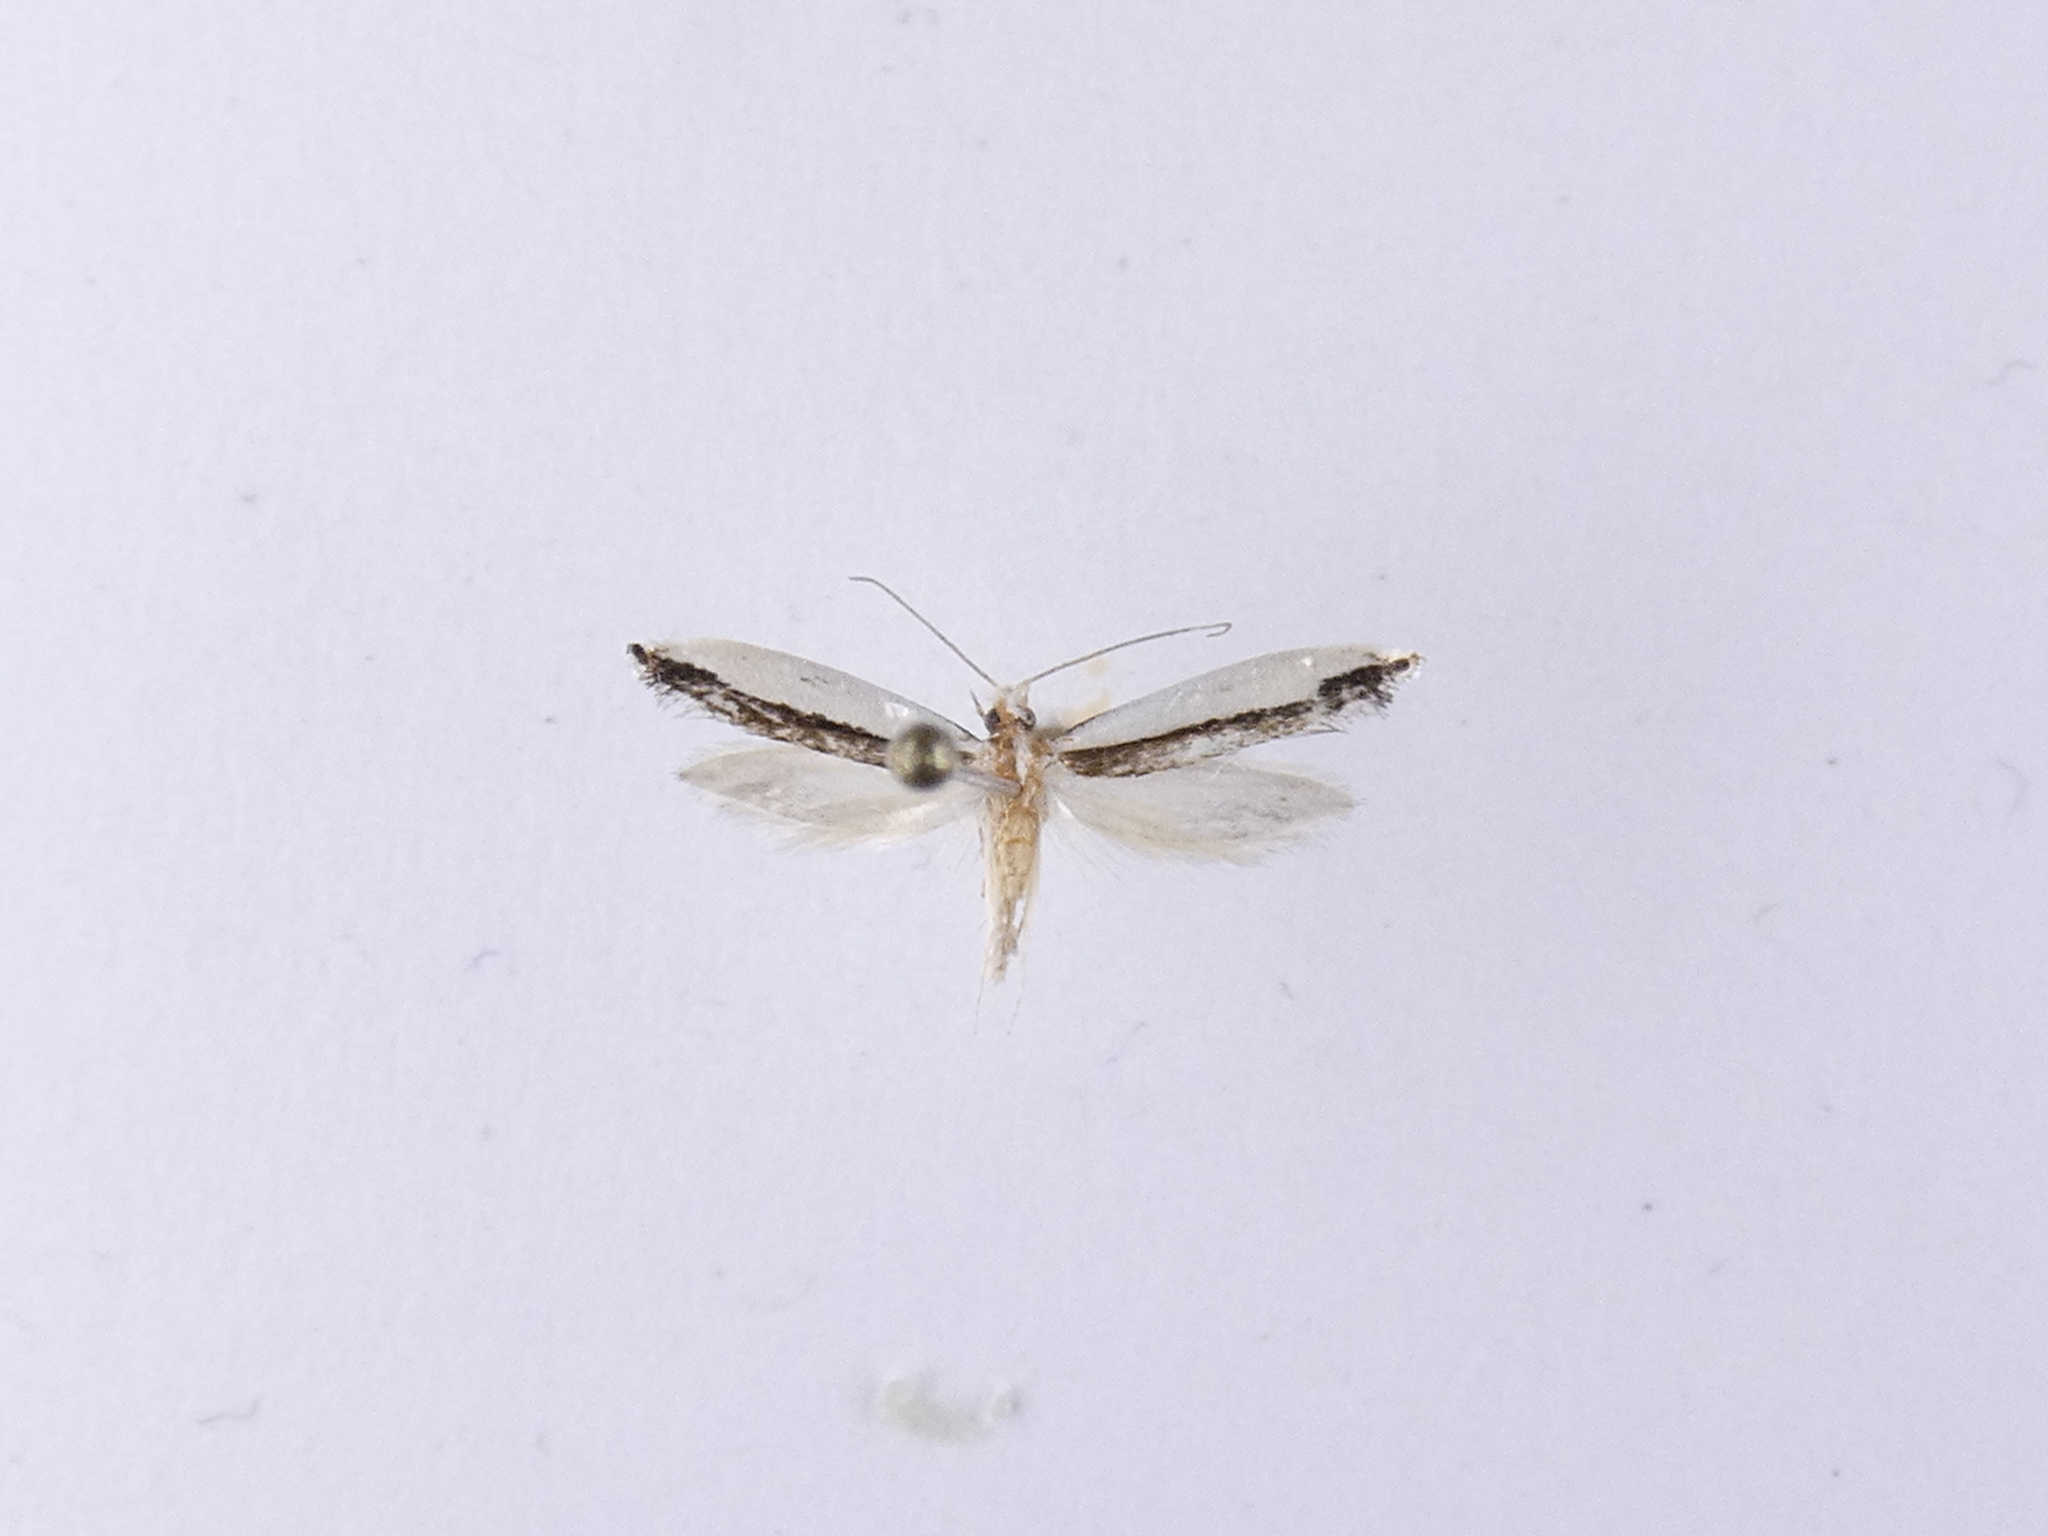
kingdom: Animalia
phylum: Arthropoda
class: Insecta
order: Lepidoptera
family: Tineidae
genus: Erechthias
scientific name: Erechthias chionodira
